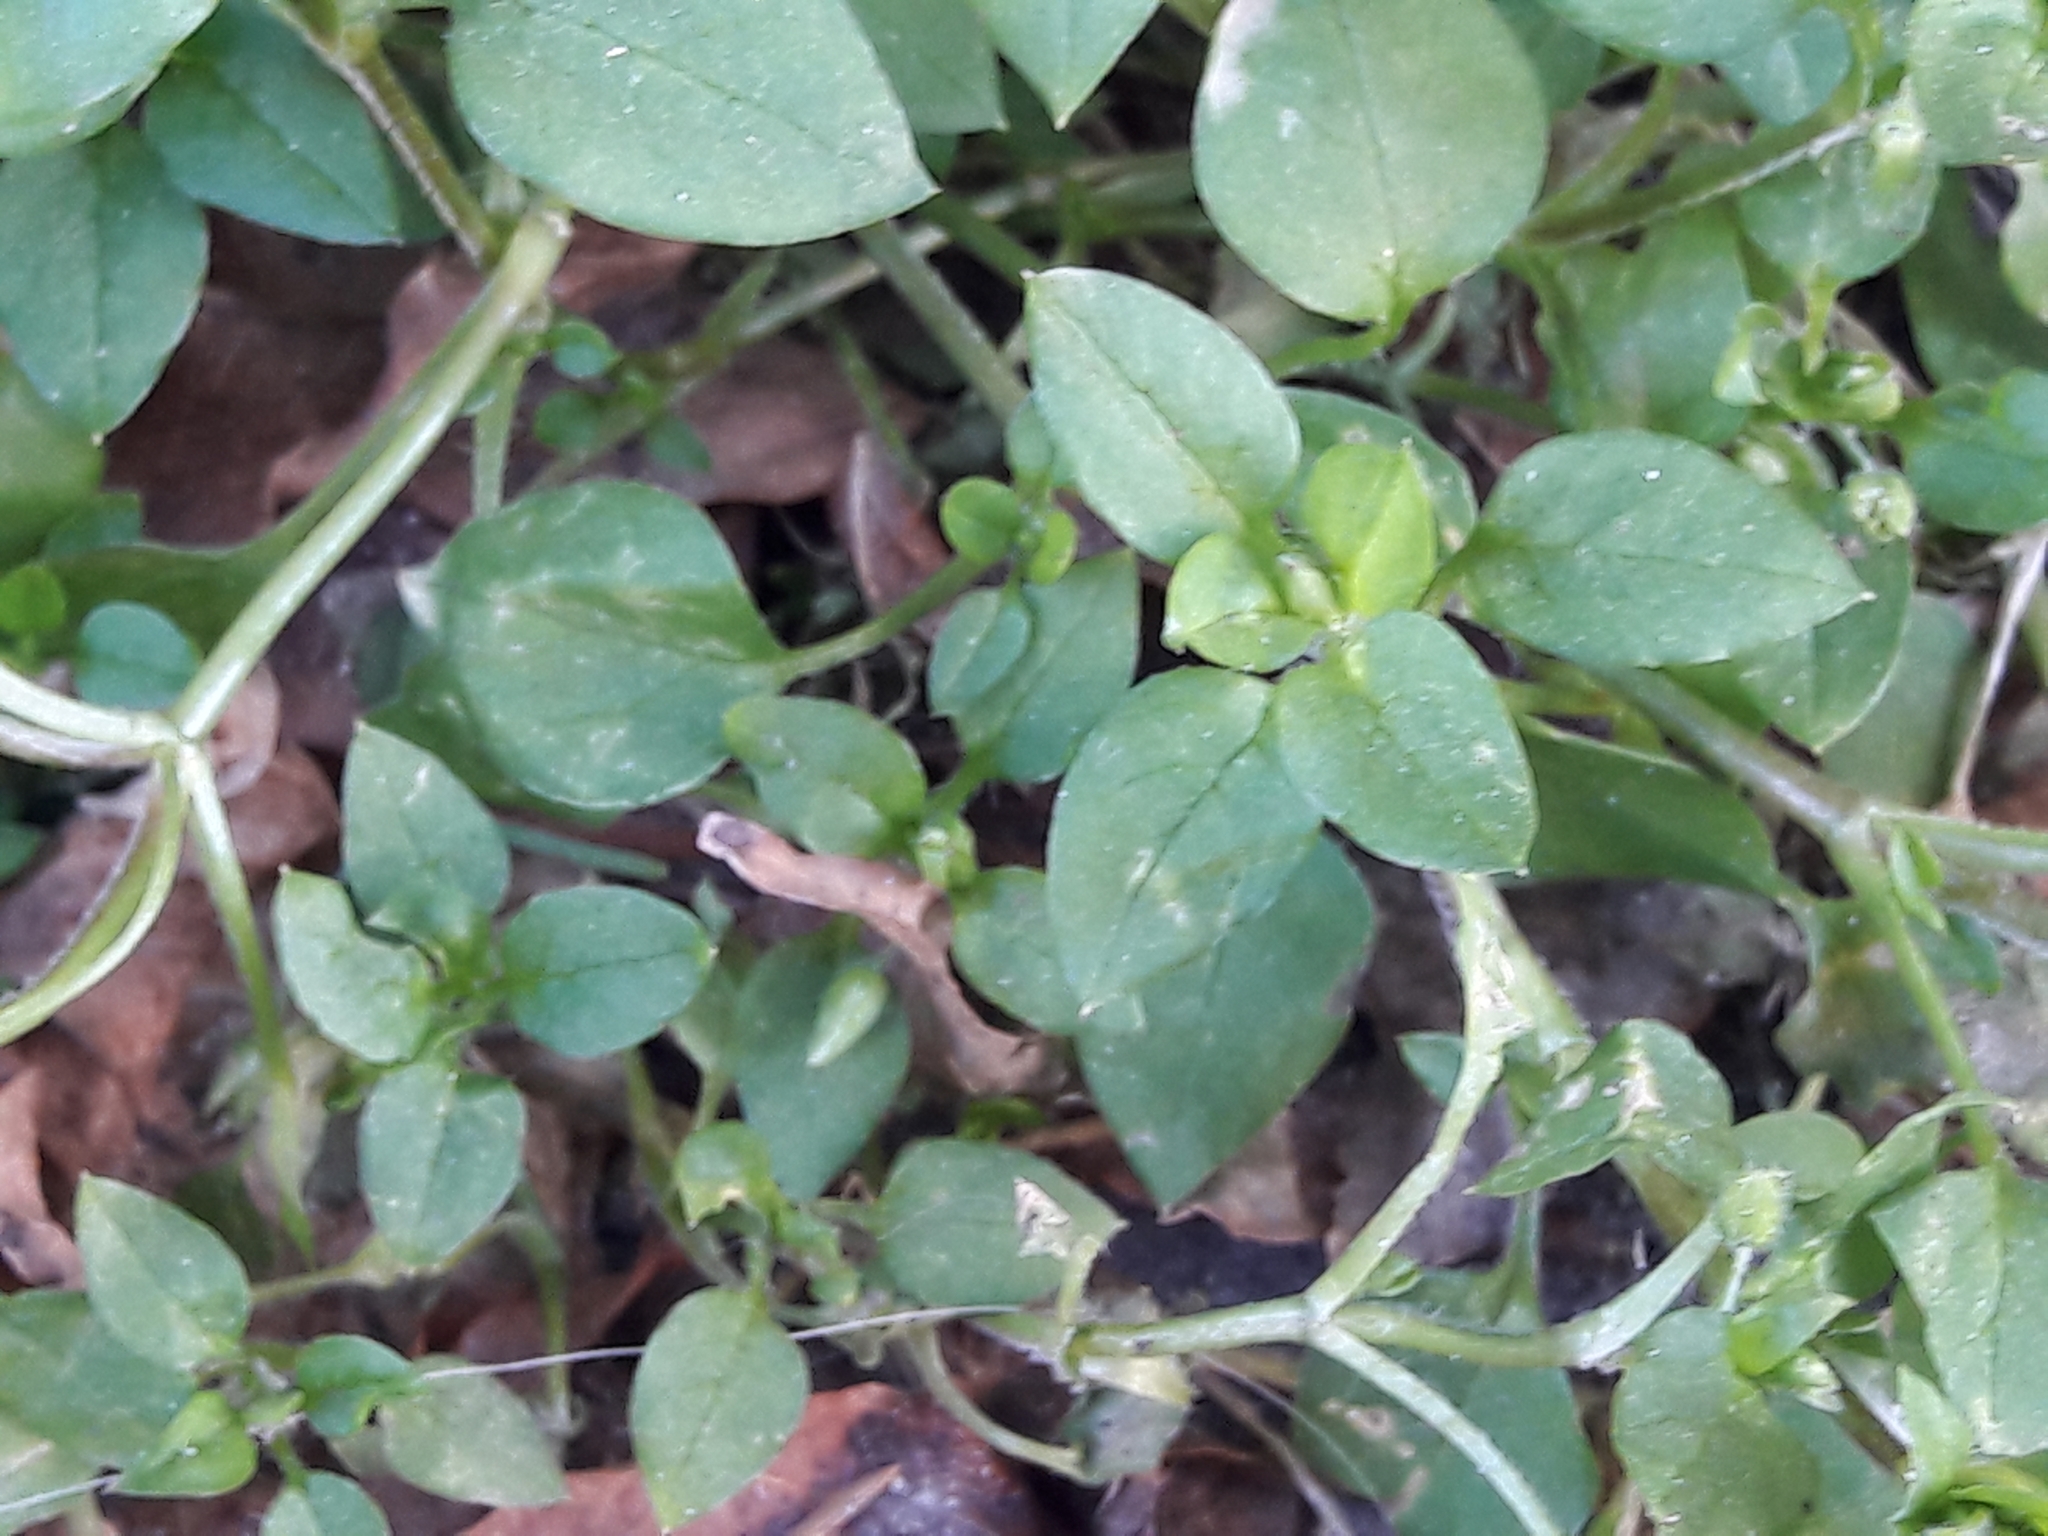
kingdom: Plantae
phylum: Tracheophyta
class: Magnoliopsida
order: Caryophyllales
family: Caryophyllaceae
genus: Stellaria
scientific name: Stellaria media
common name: Common chickweed
